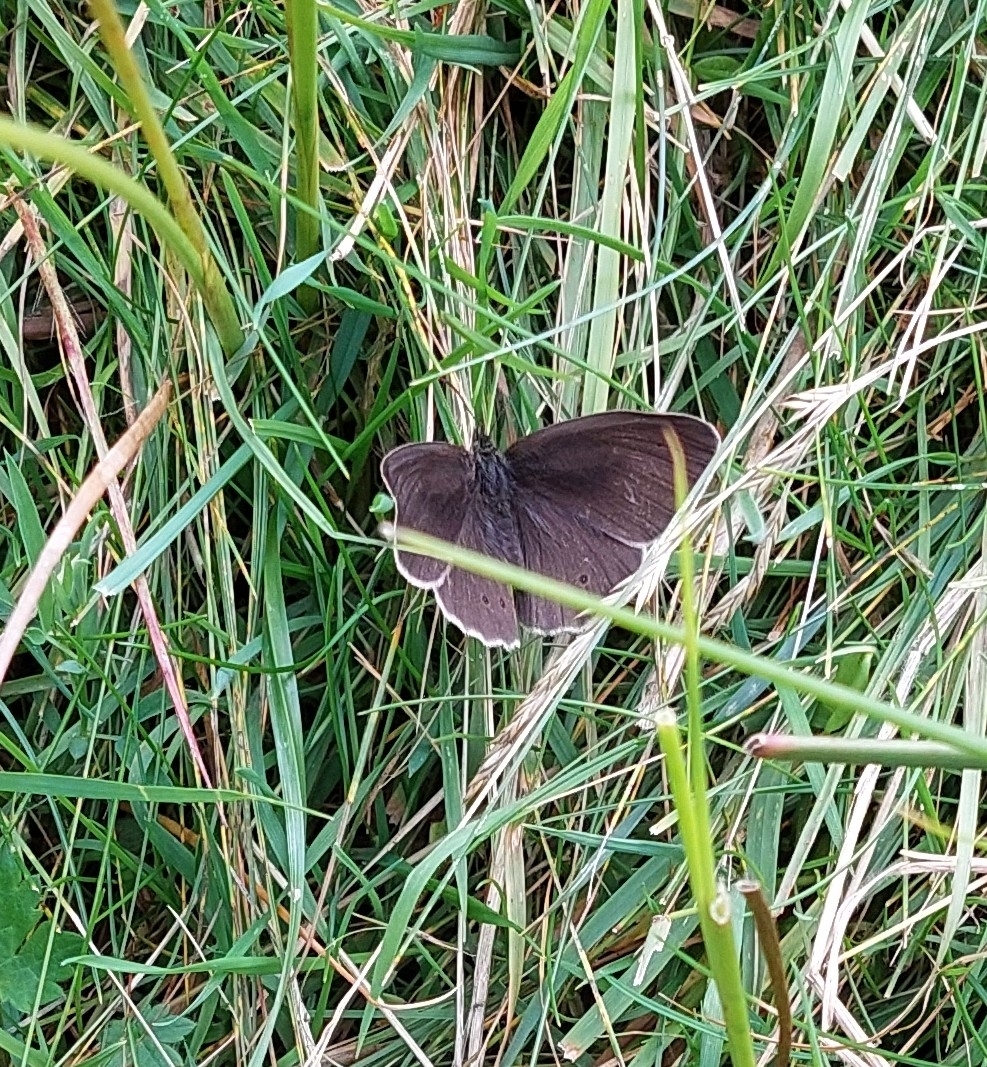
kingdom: Animalia
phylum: Arthropoda
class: Insecta
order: Lepidoptera
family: Nymphalidae
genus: Aphantopus
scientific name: Aphantopus hyperantus
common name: Ringlet
